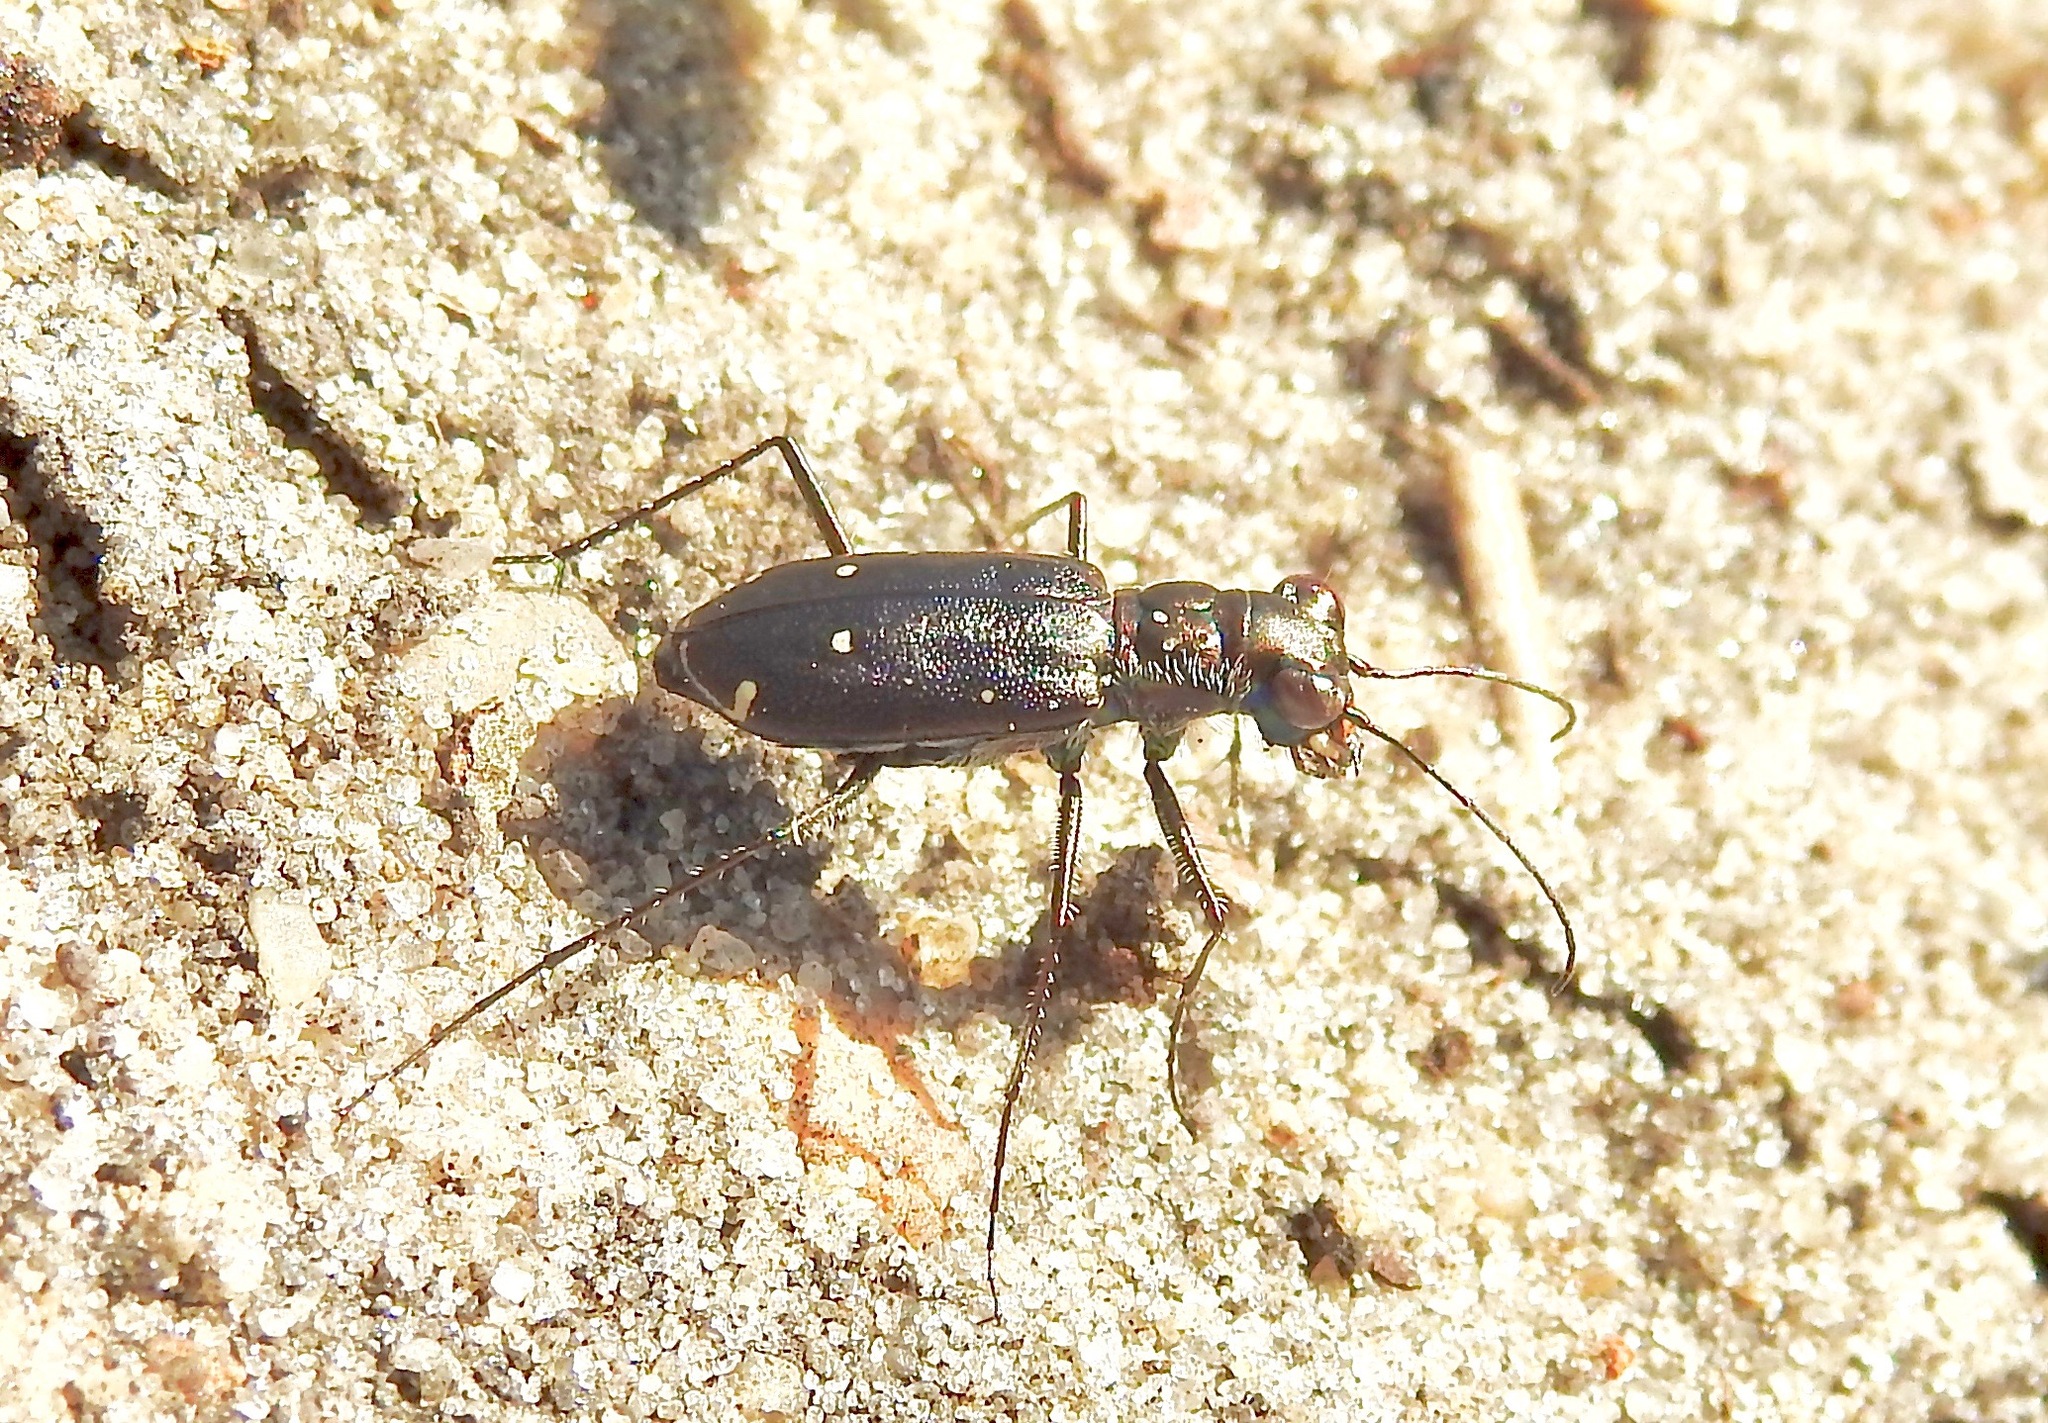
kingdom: Animalia
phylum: Arthropoda
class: Insecta
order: Coleoptera
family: Carabidae
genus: Cicindela
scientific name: Cicindela punctulata
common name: Punctured tiger beetle
